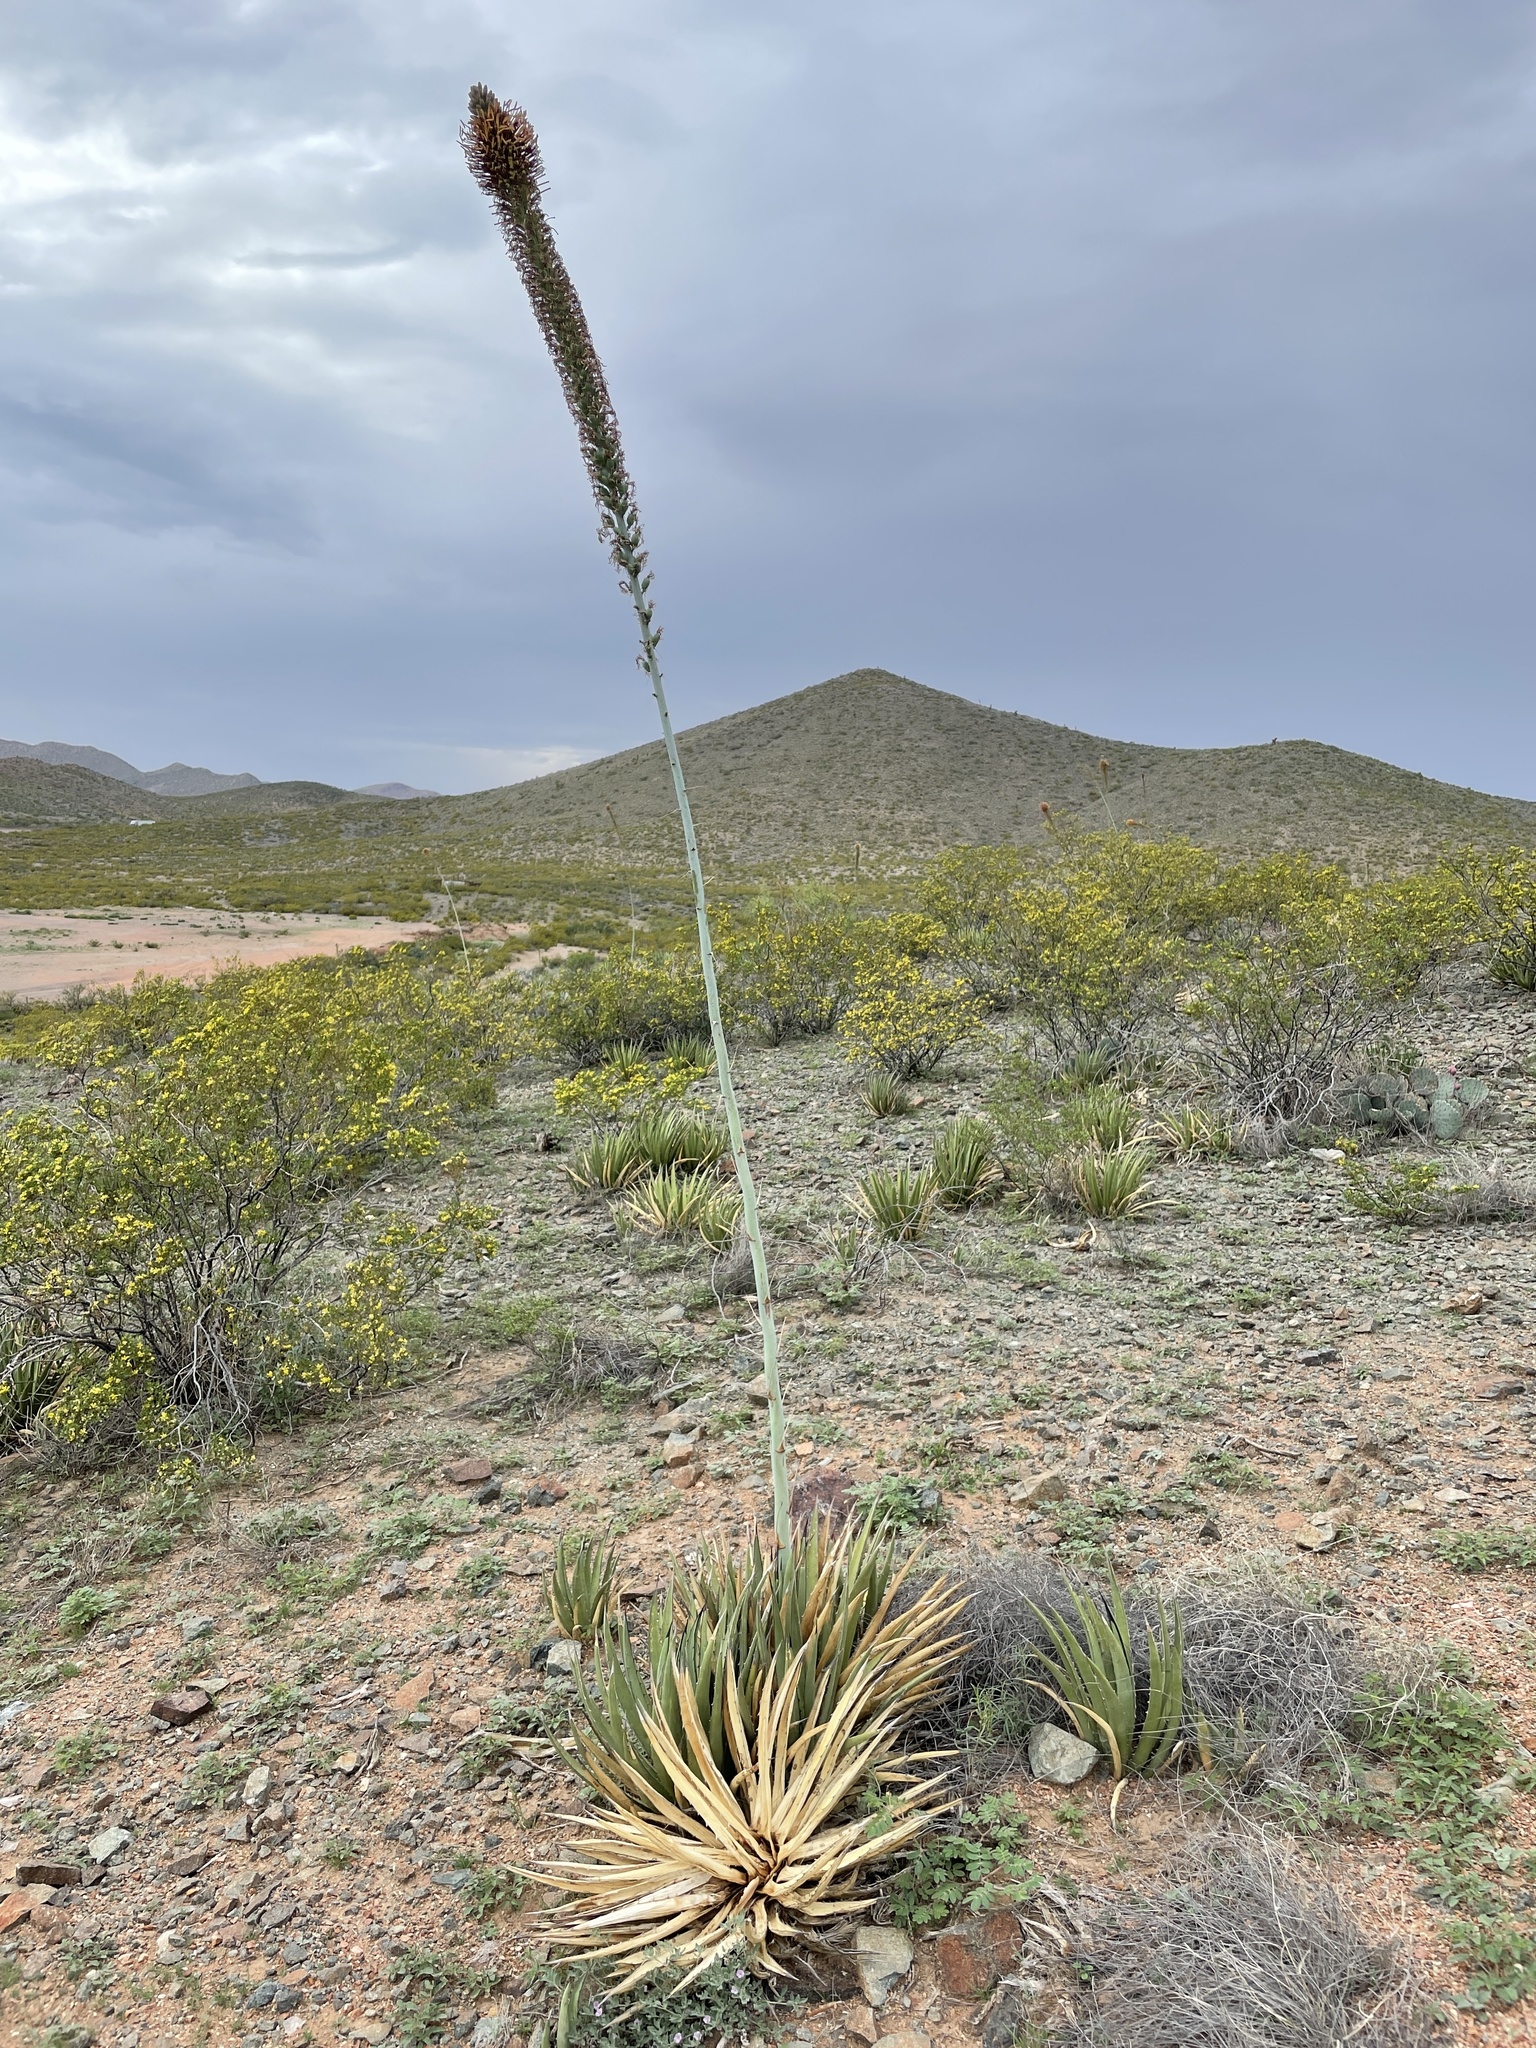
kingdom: Plantae
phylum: Tracheophyta
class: Liliopsida
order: Asparagales
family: Asparagaceae
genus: Agave
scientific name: Agave lechuguilla
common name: Lecheguilla agave
